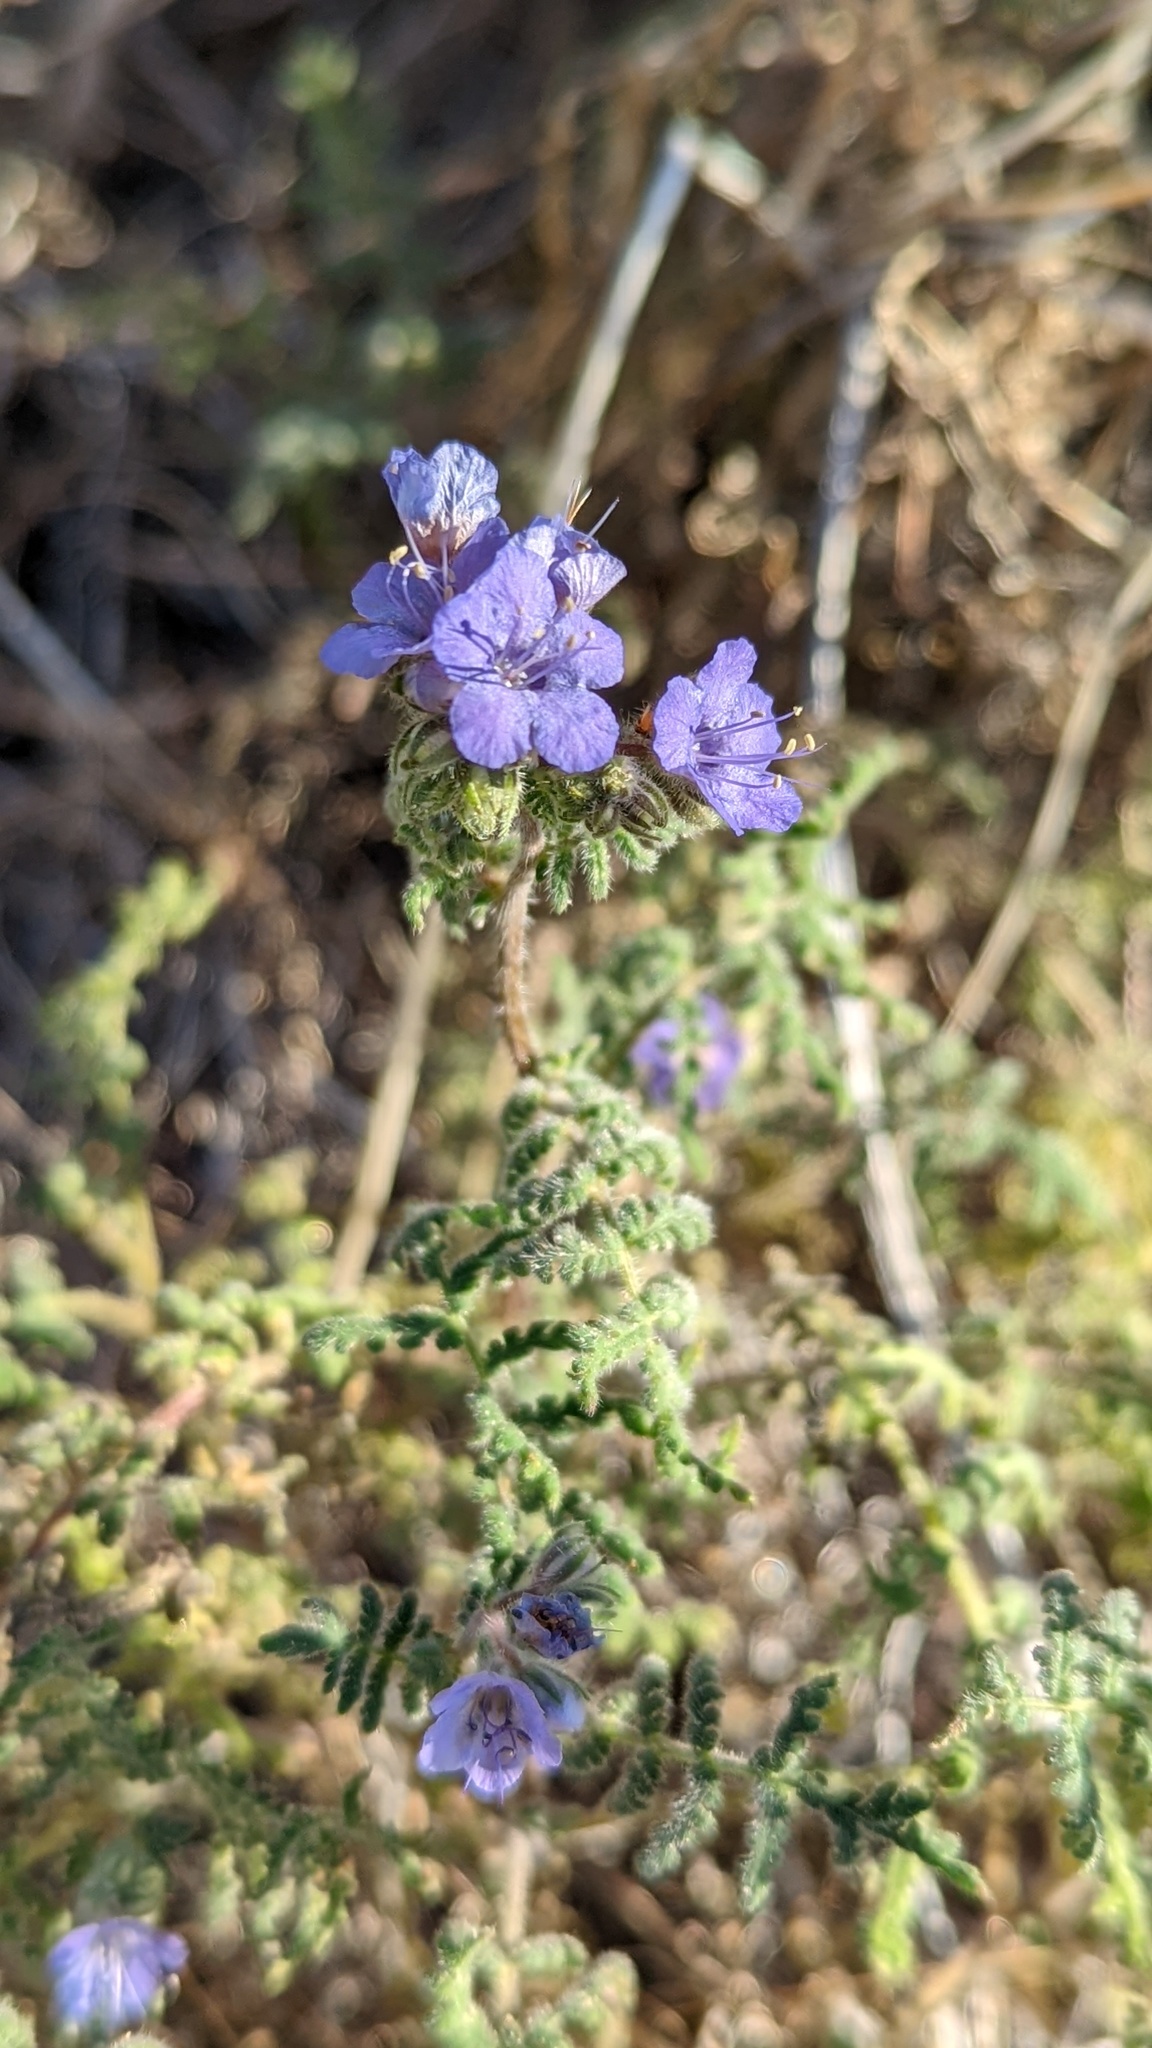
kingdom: Plantae
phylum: Tracheophyta
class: Magnoliopsida
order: Boraginales
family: Hydrophyllaceae
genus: Phacelia
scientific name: Phacelia distans
